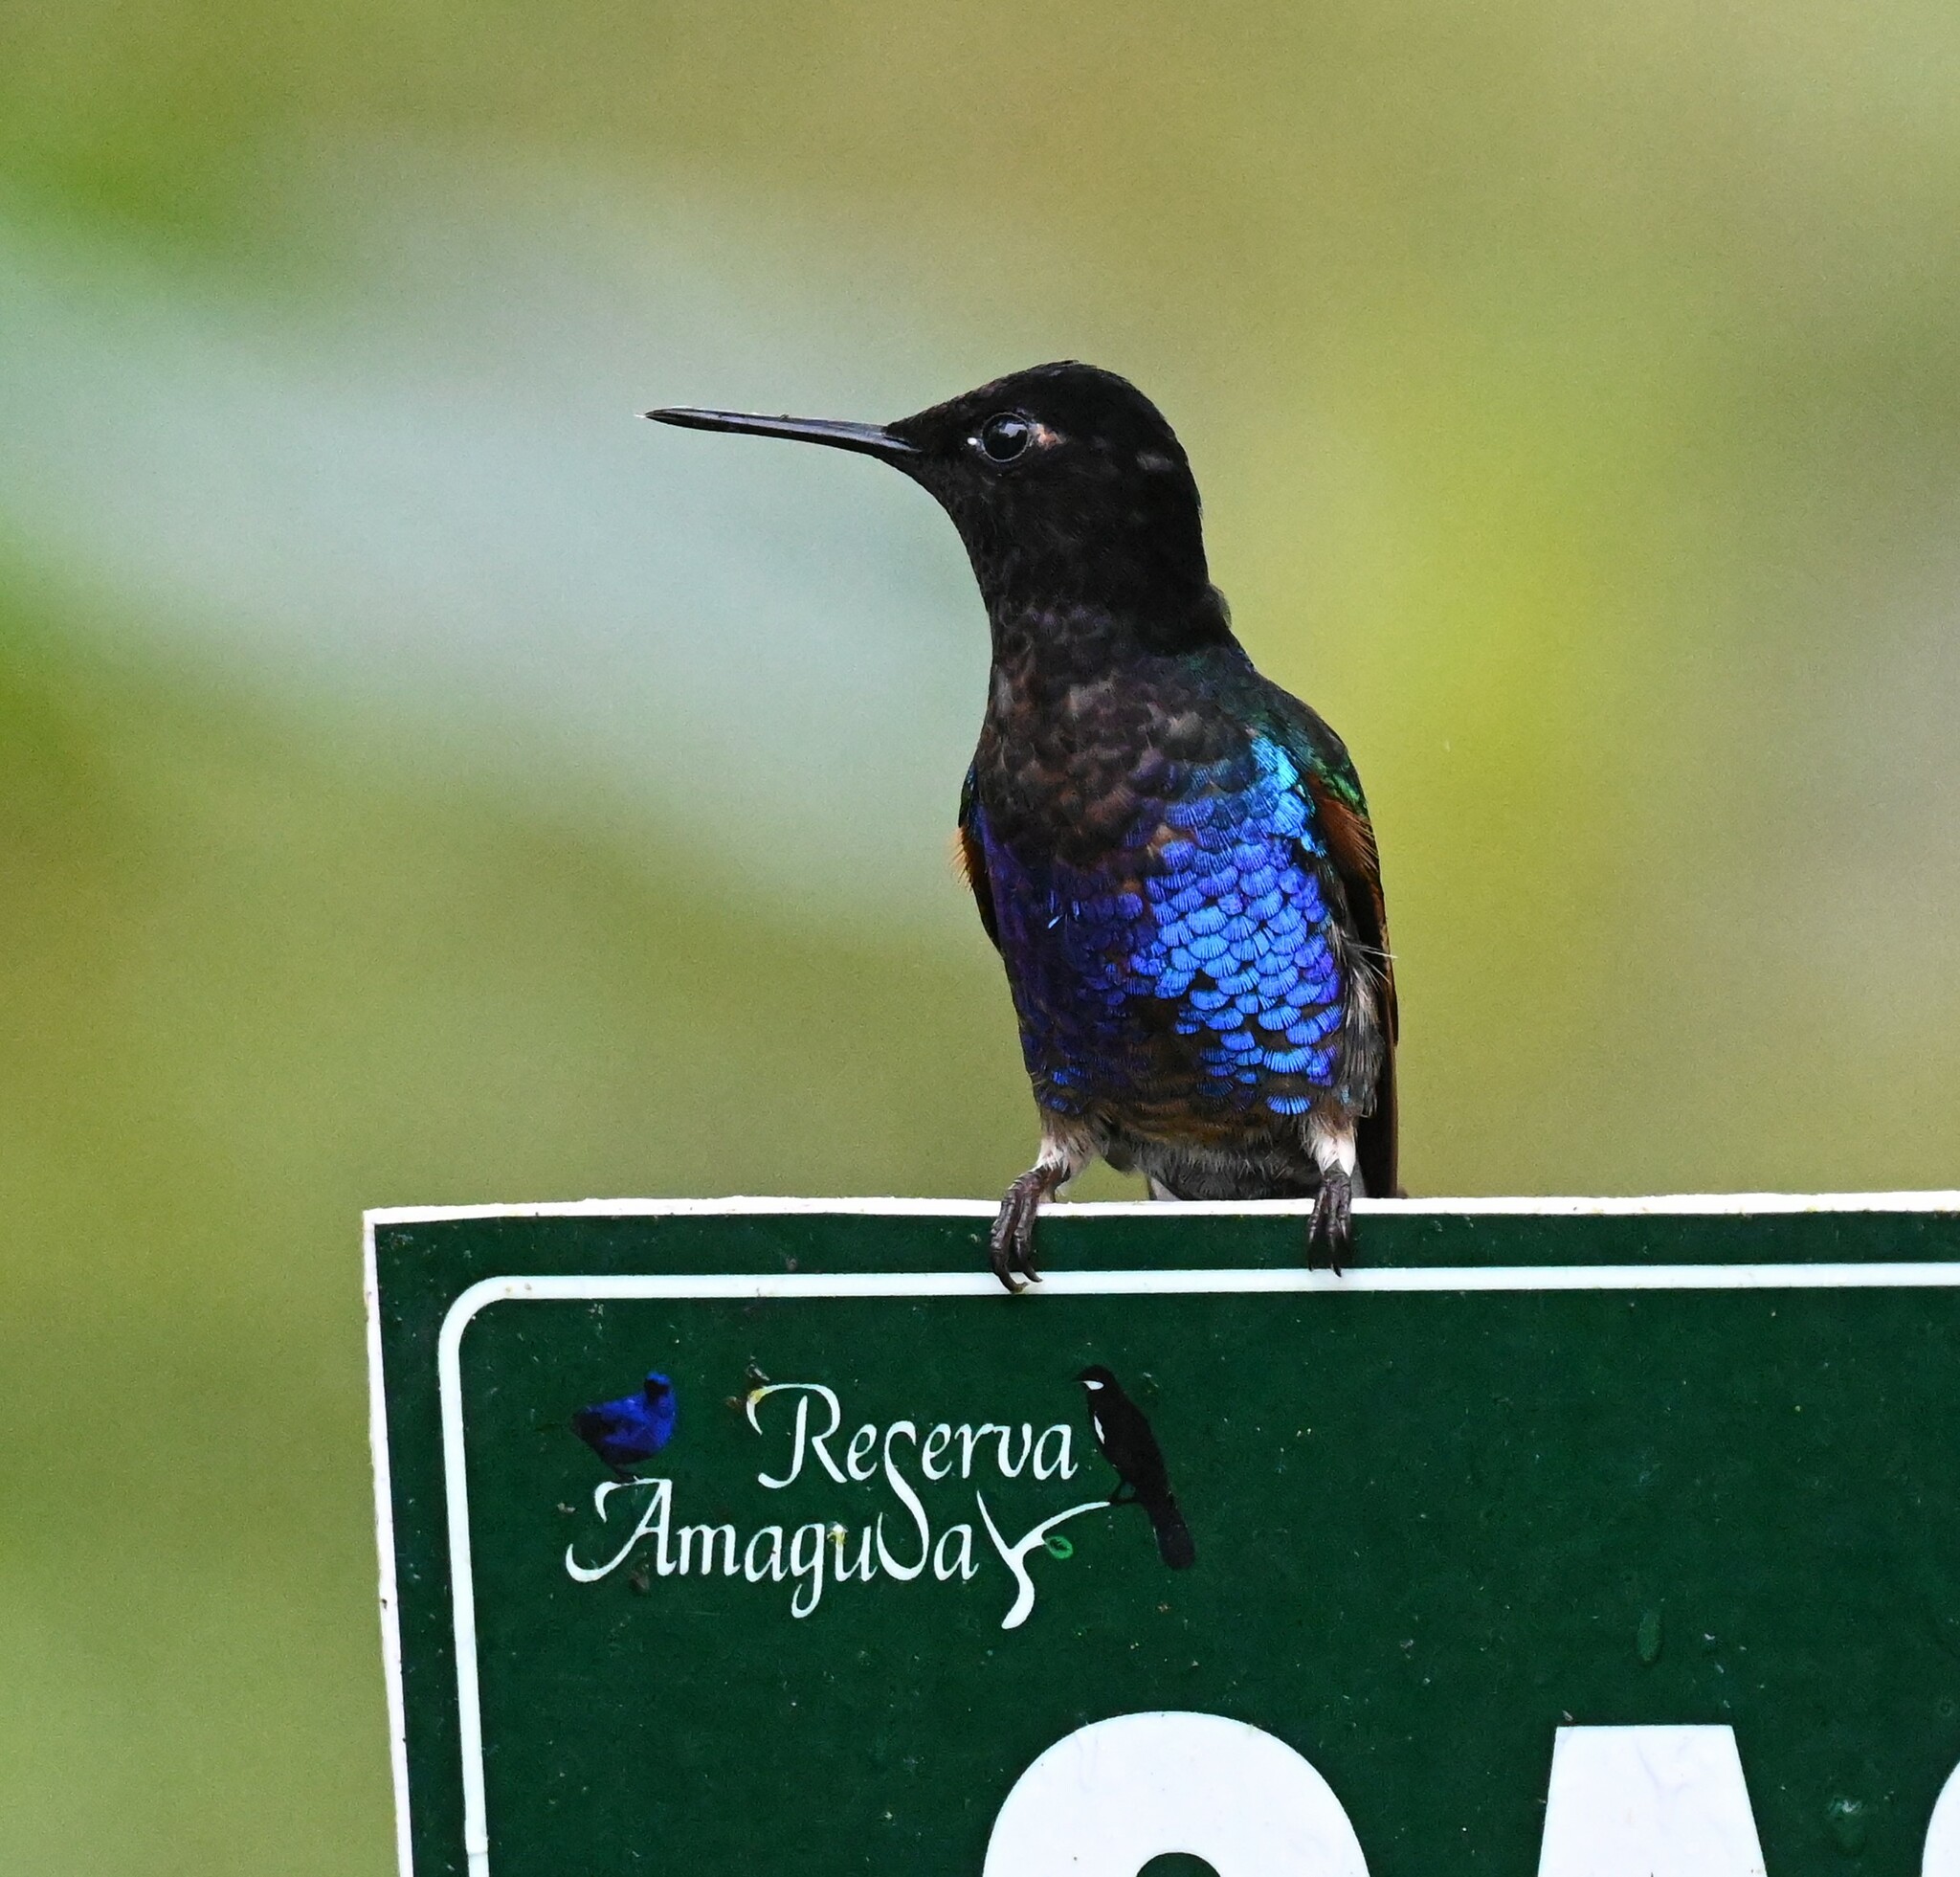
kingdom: Animalia
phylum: Chordata
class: Aves
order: Apodiformes
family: Trochilidae
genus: Boissonneaua
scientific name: Boissonneaua jardini
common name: Velvet-purple coronet
